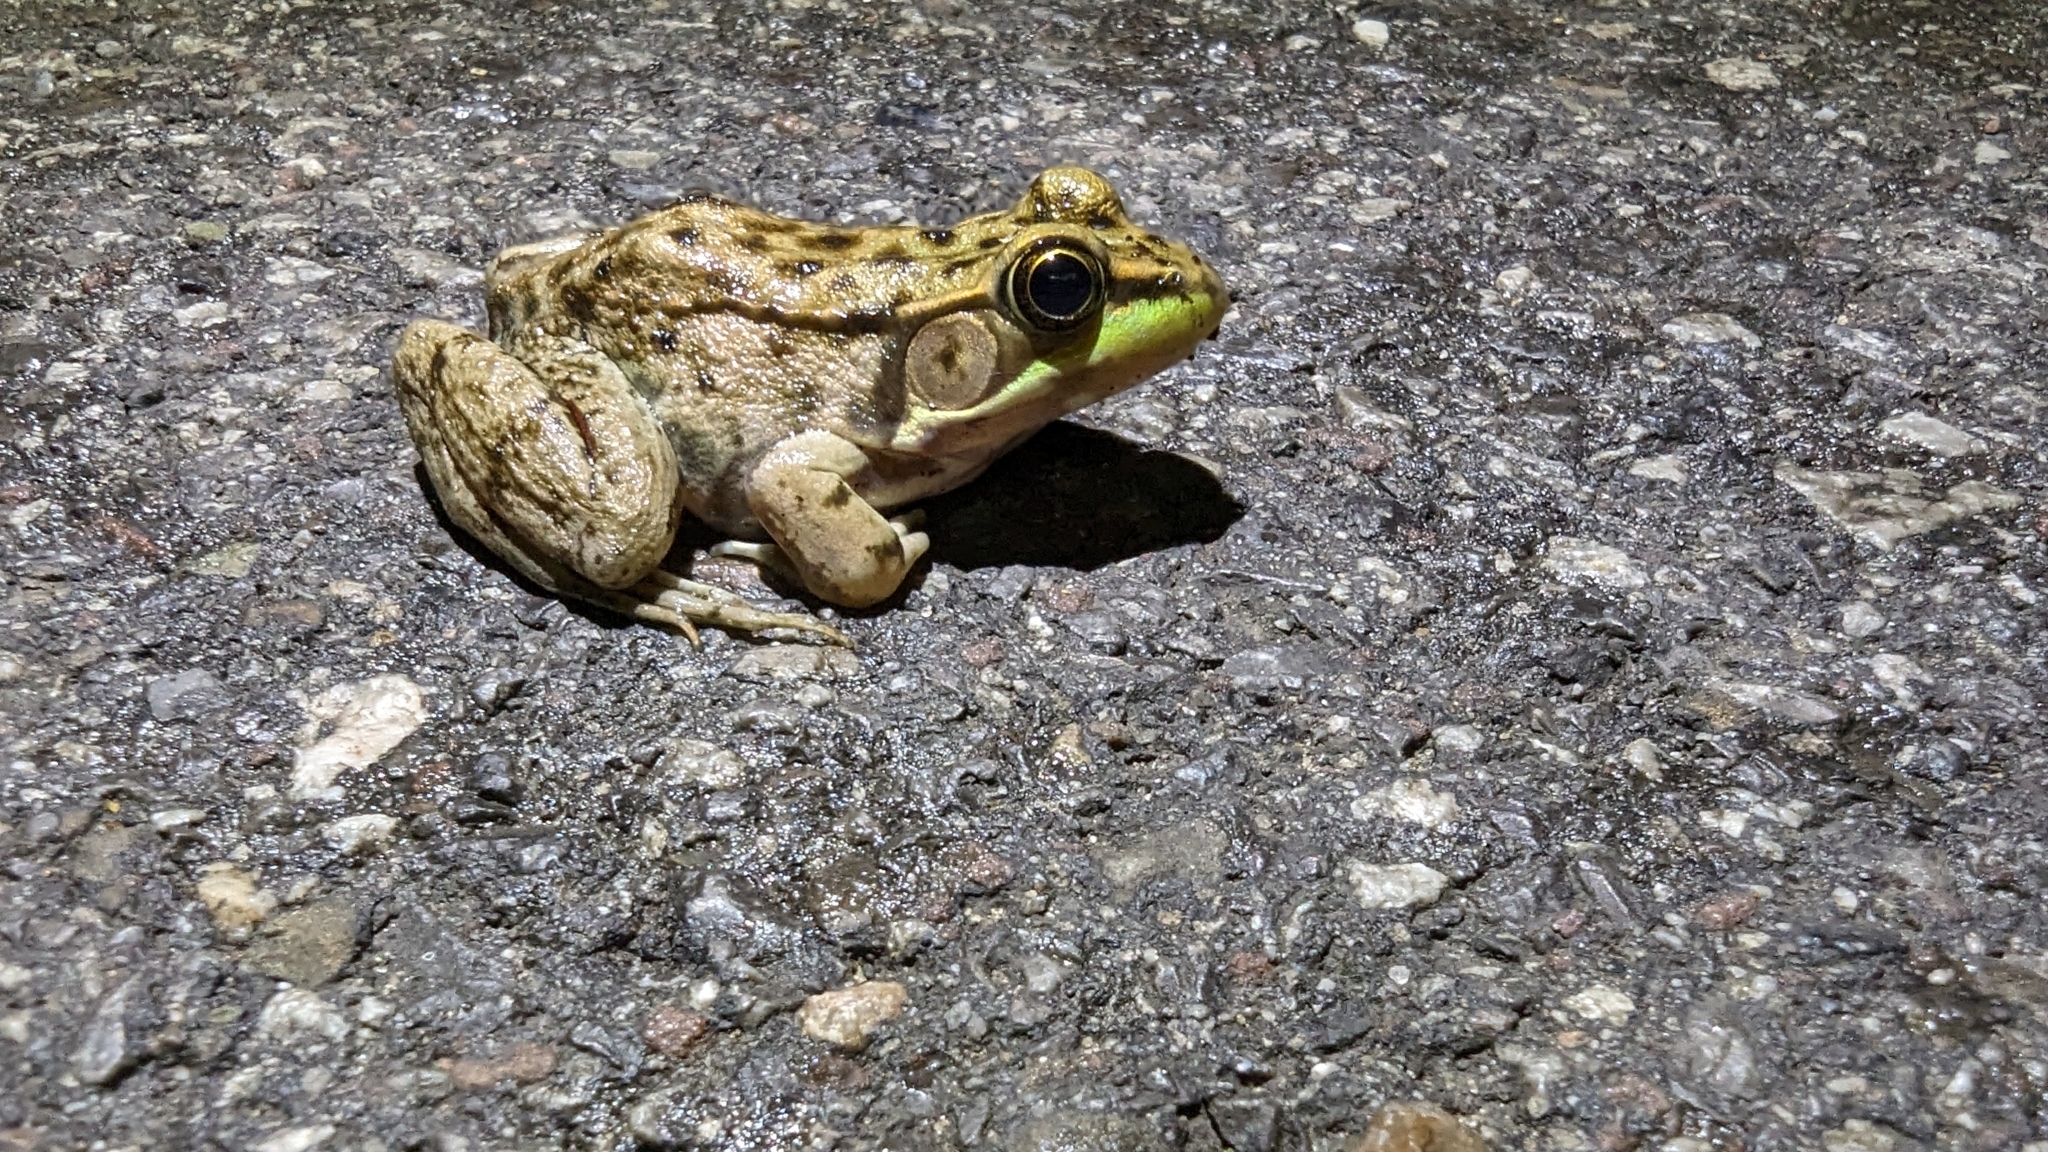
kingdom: Animalia
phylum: Chordata
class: Amphibia
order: Anura
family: Ranidae
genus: Lithobates
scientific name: Lithobates clamitans
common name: Green frog
